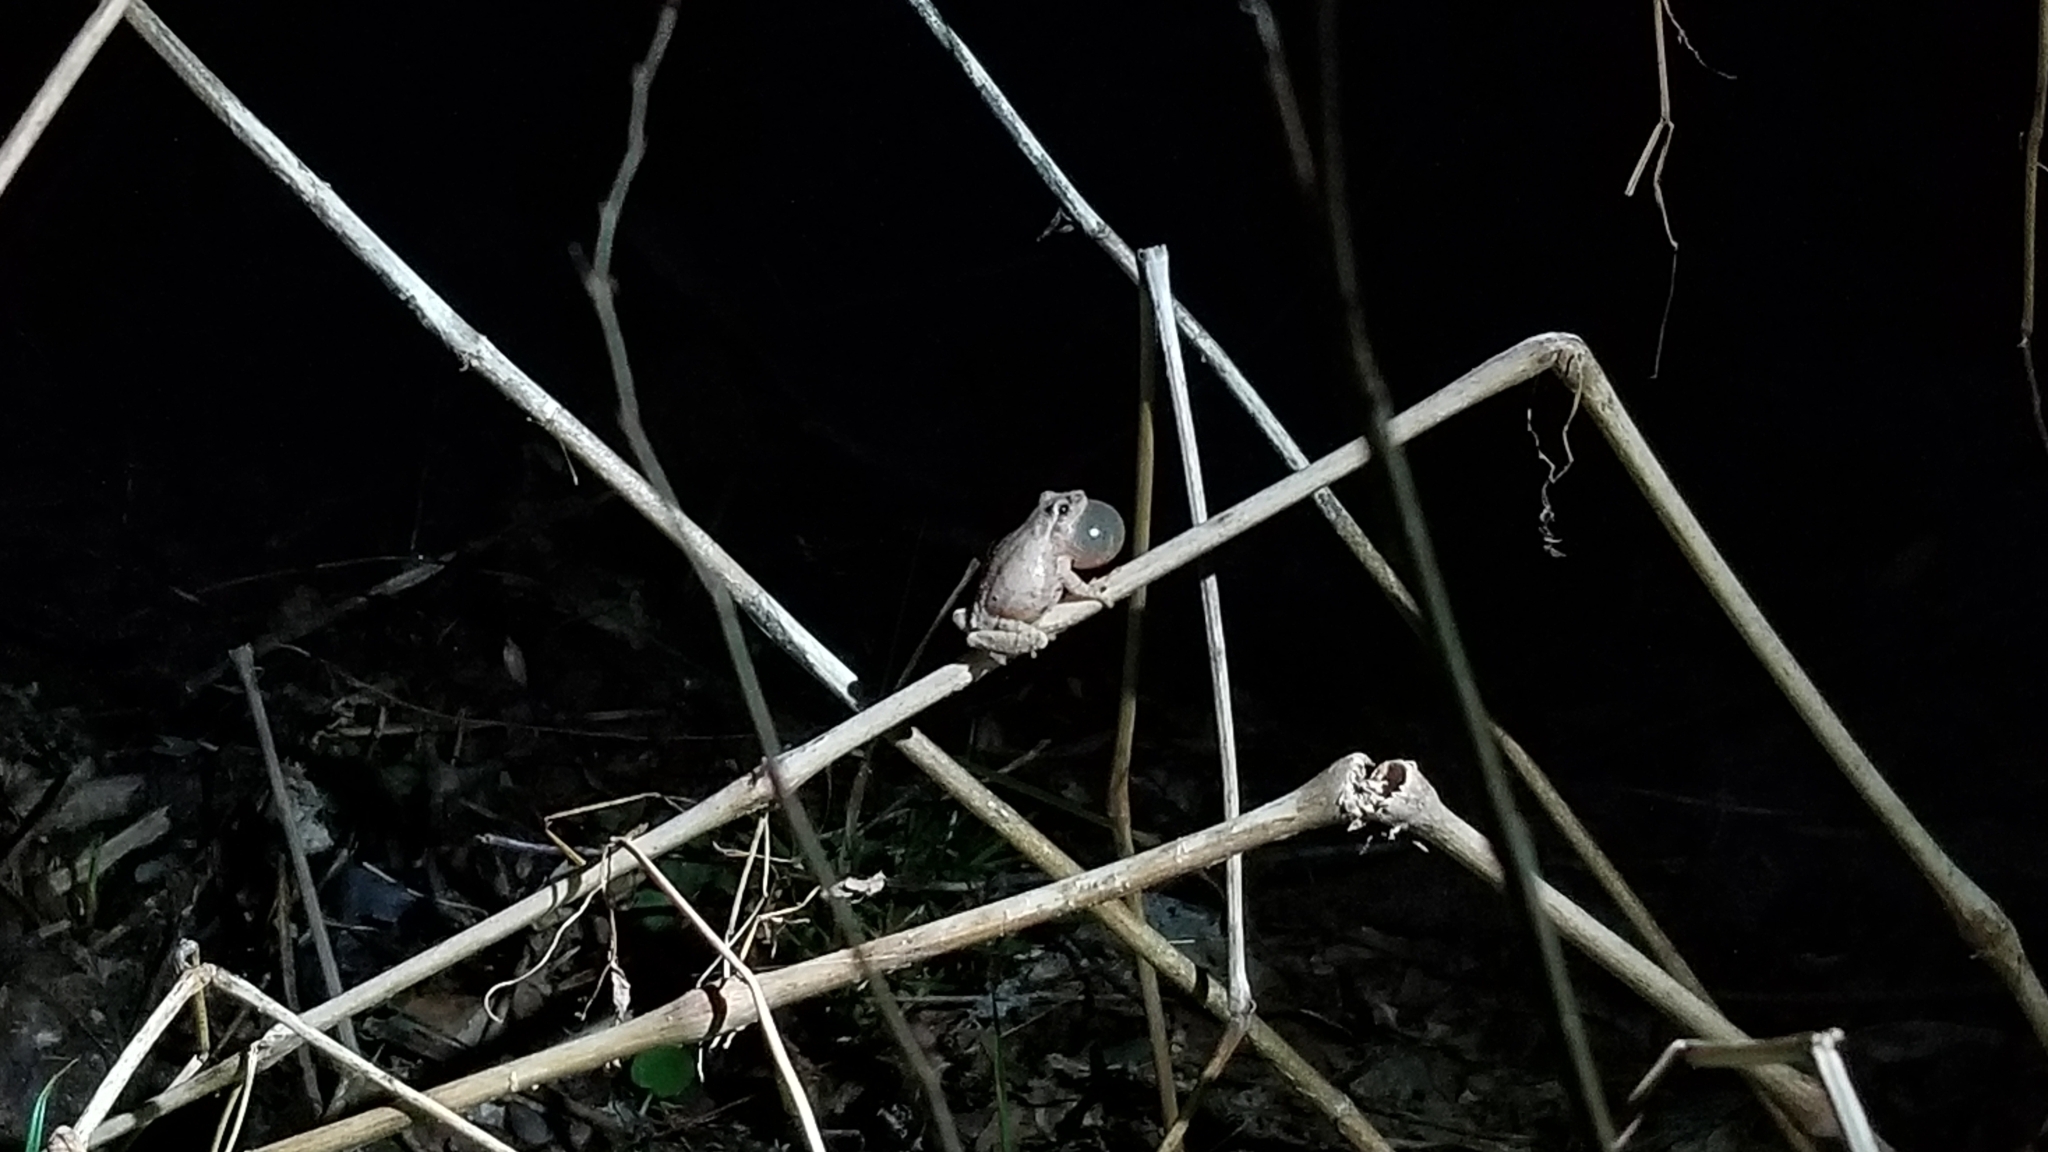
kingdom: Animalia
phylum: Chordata
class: Amphibia
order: Anura
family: Hylidae
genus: Pseudacris
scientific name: Pseudacris crucifer
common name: Spring peeper
